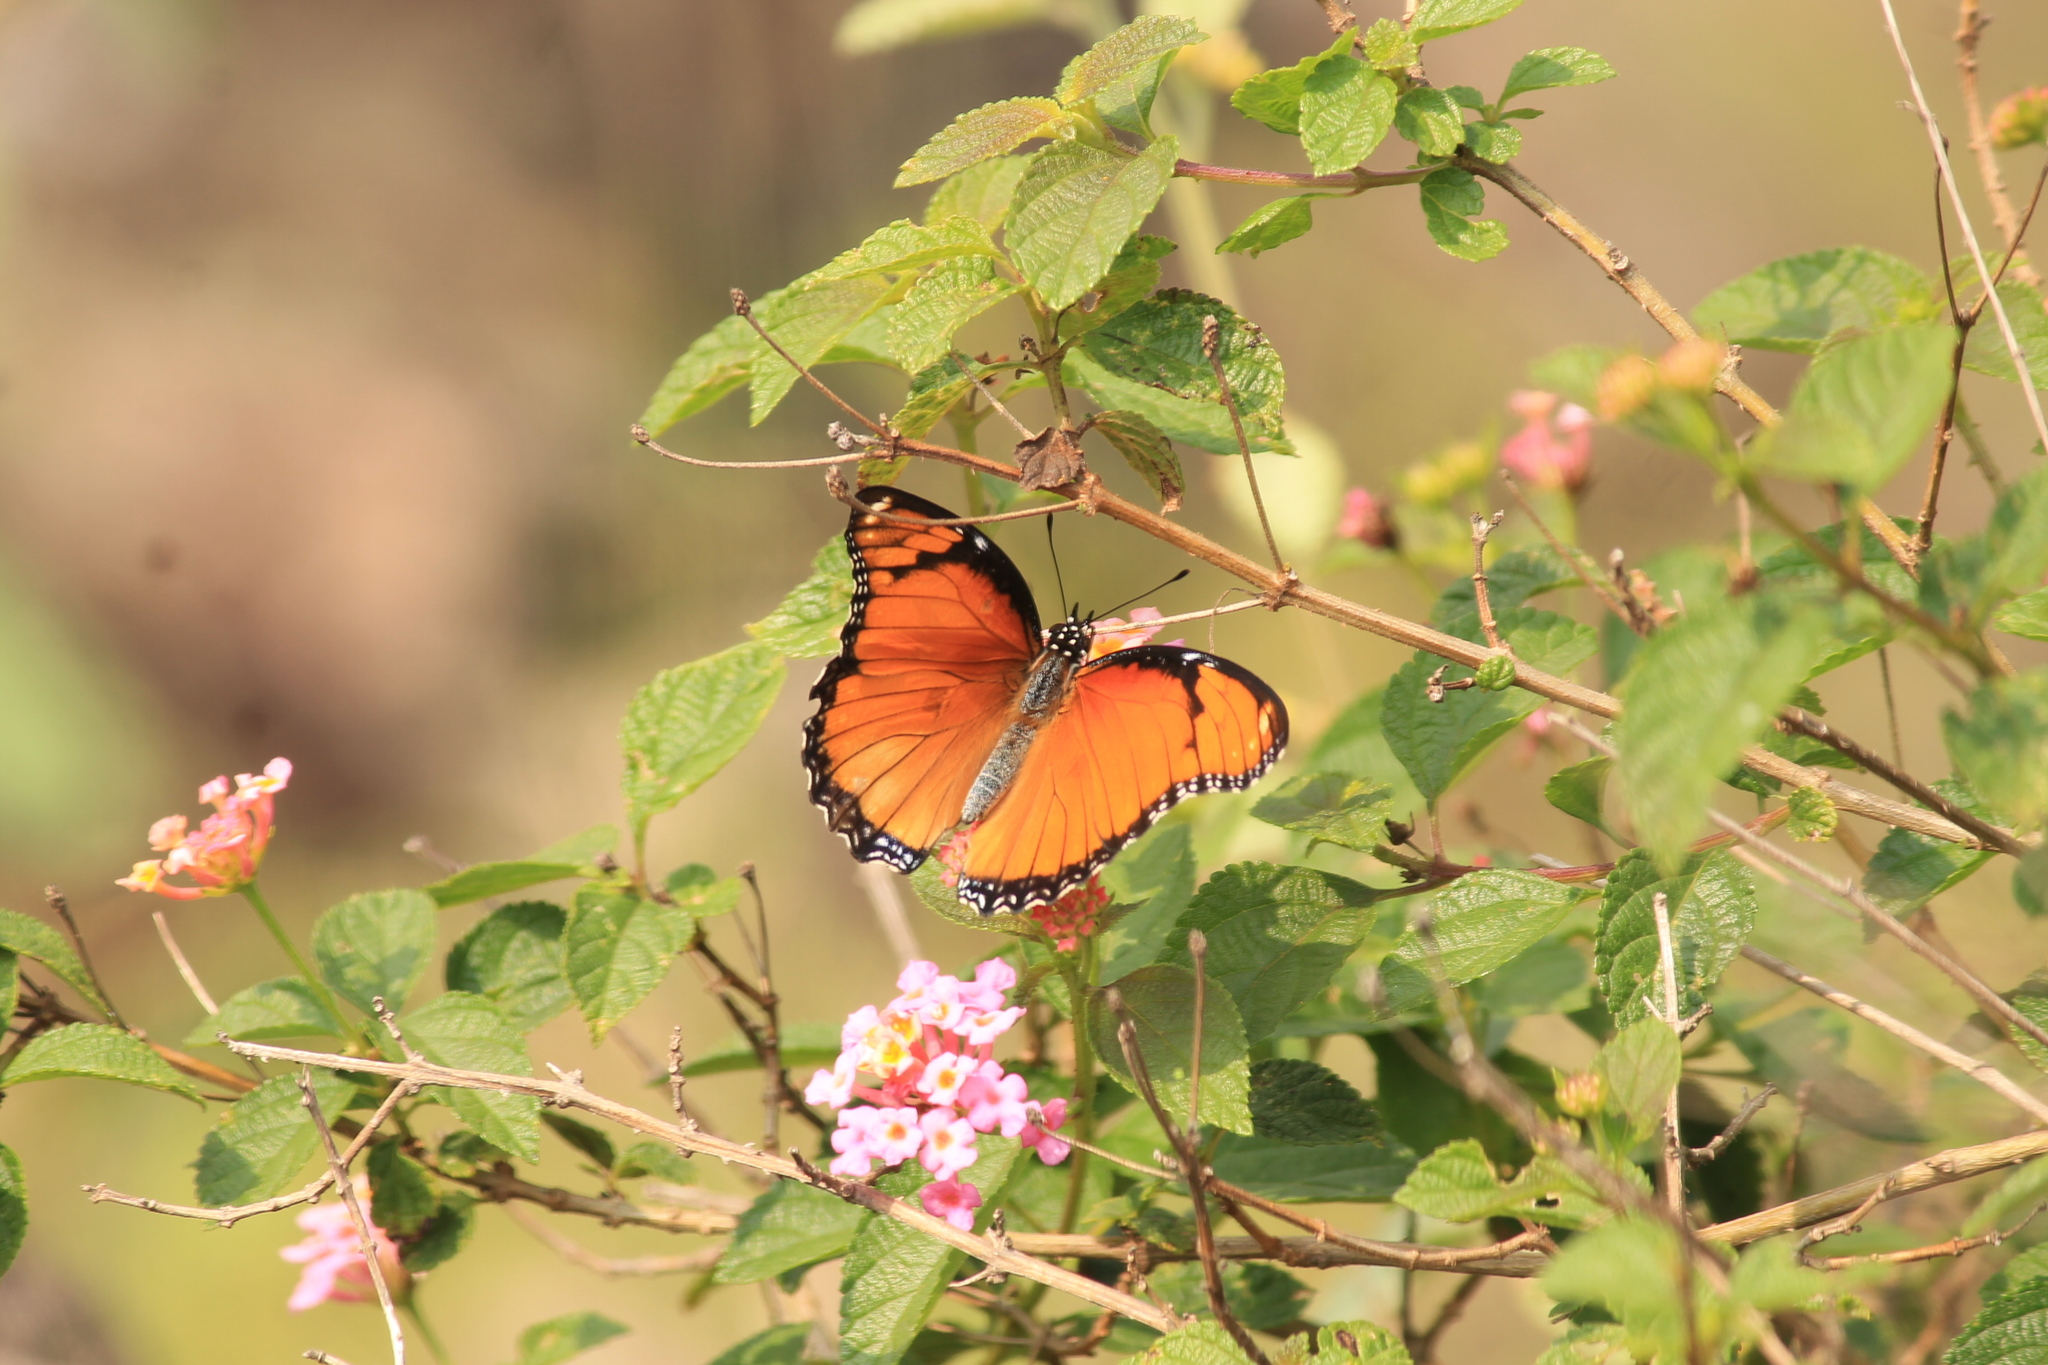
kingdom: Animalia
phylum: Arthropoda
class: Insecta
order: Lepidoptera
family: Nymphalidae
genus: Hypolimnas
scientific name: Hypolimnas misippus
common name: False plain tiger
